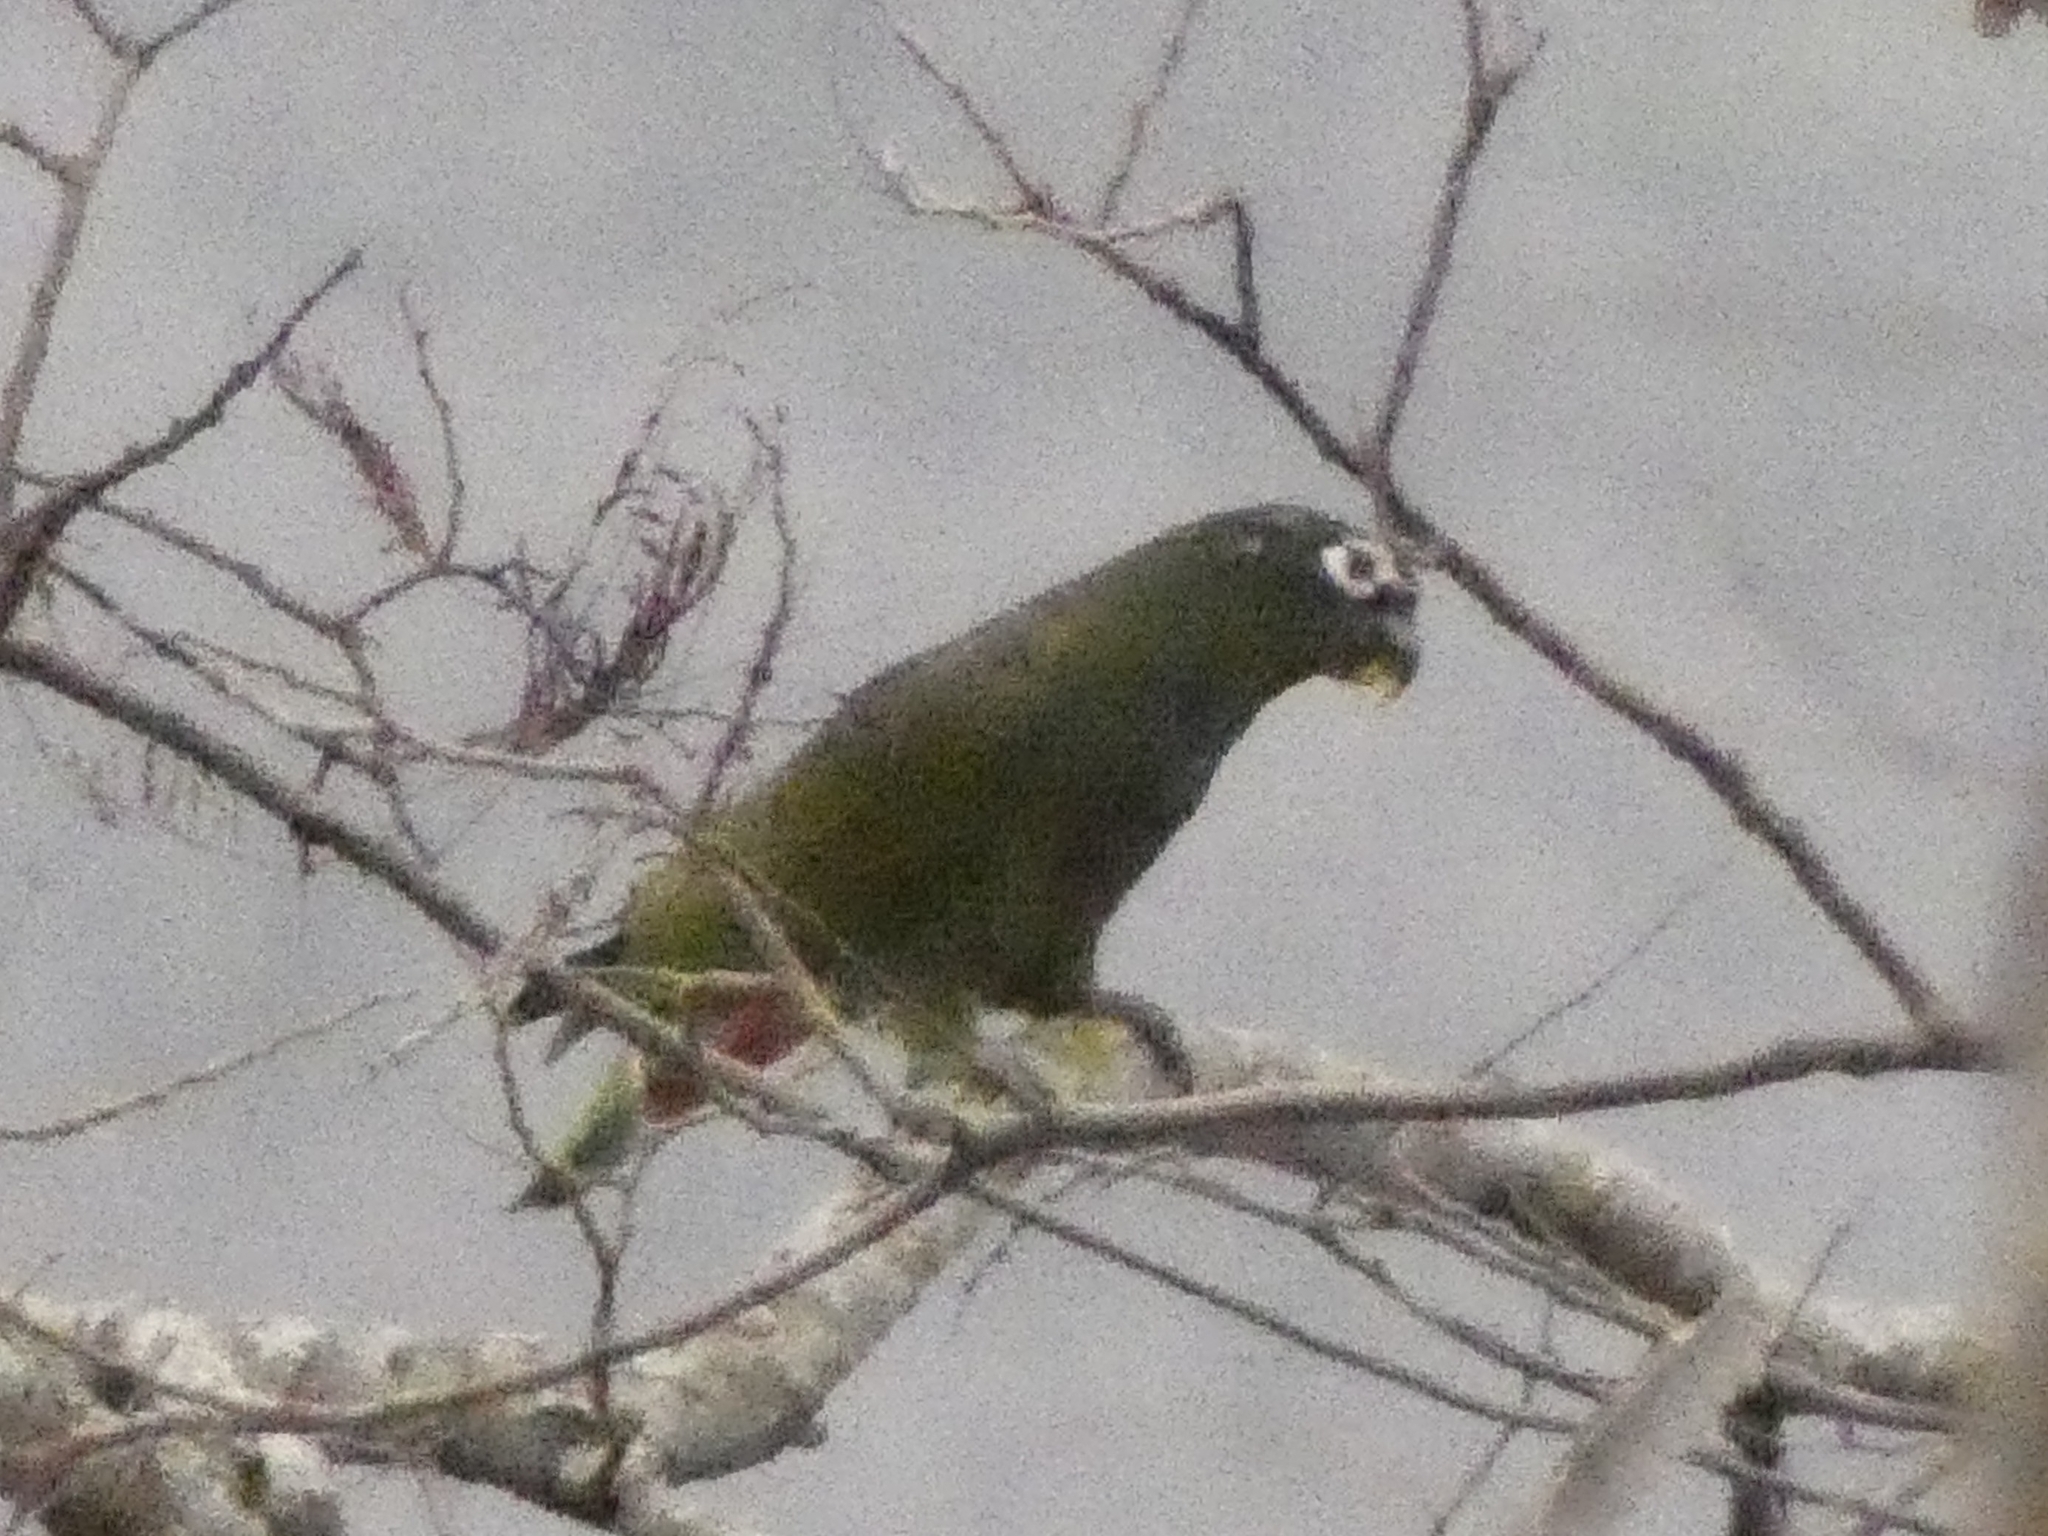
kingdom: Animalia
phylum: Chordata
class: Aves
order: Psittaciformes
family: Psittacidae
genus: Pionus
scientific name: Pionus maximiliani
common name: Scaly-headed parrot
